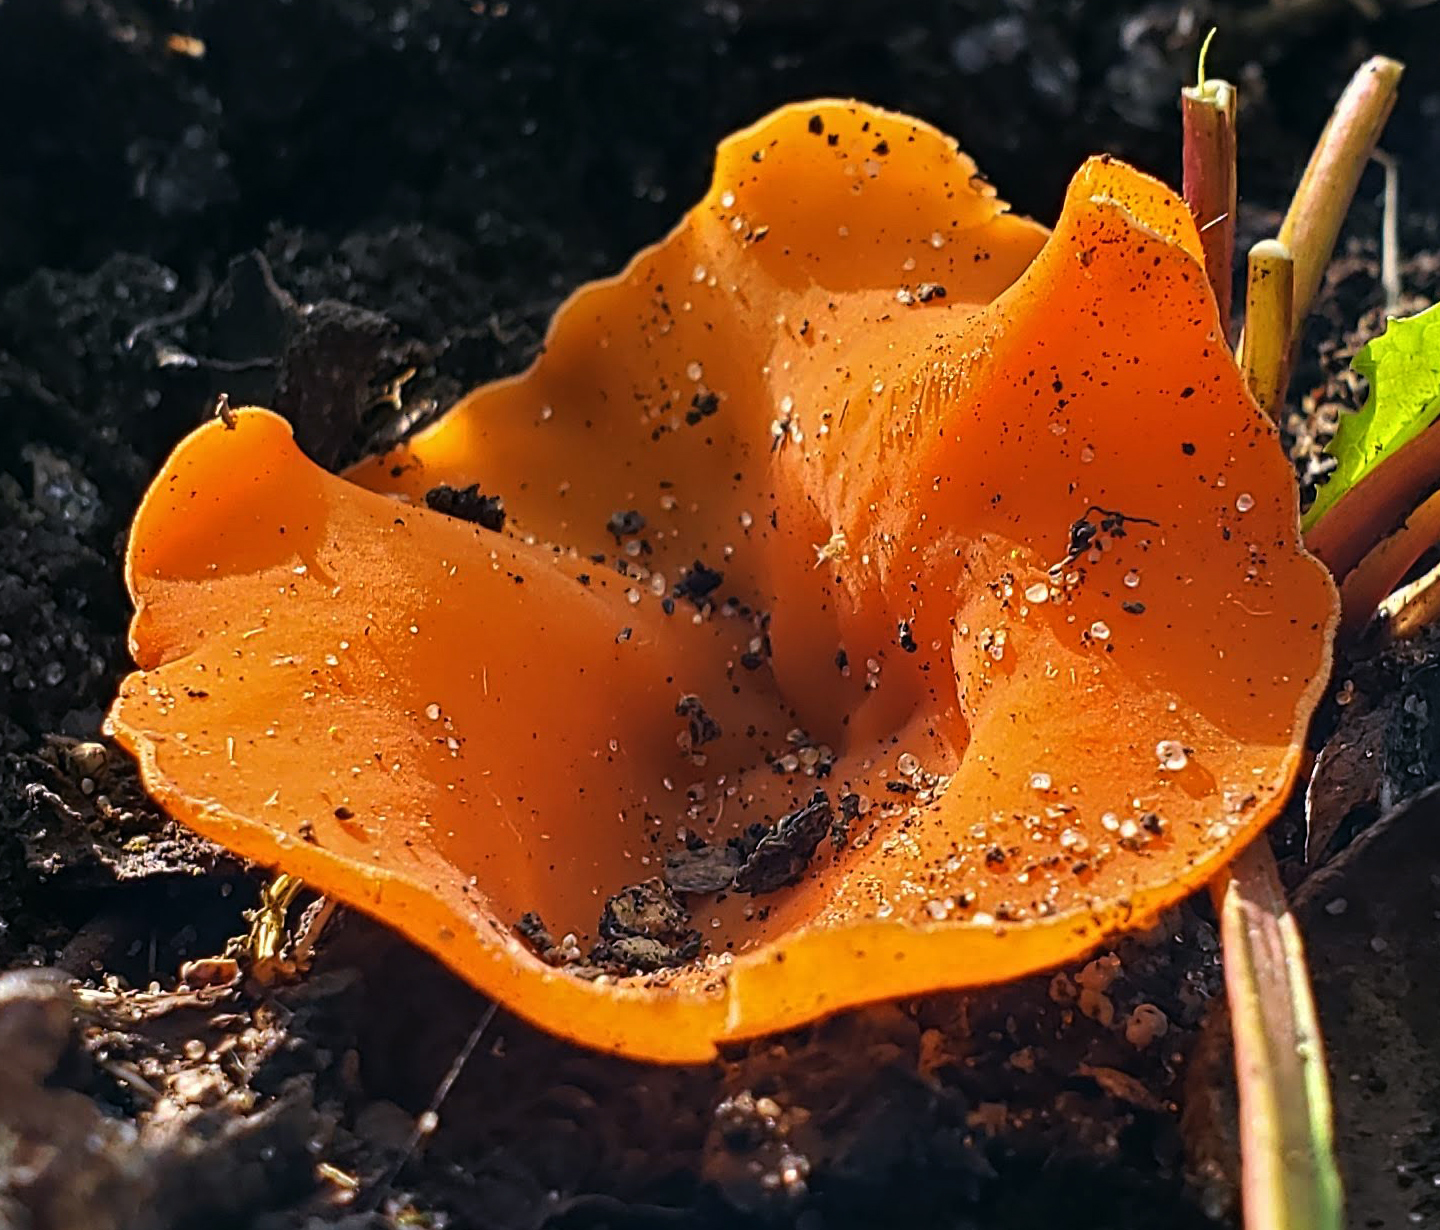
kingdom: Fungi
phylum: Ascomycota
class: Pezizomycetes
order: Pezizales
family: Pyronemataceae
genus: Aleuria
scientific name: Aleuria aurantia
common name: Orange peel fungus
